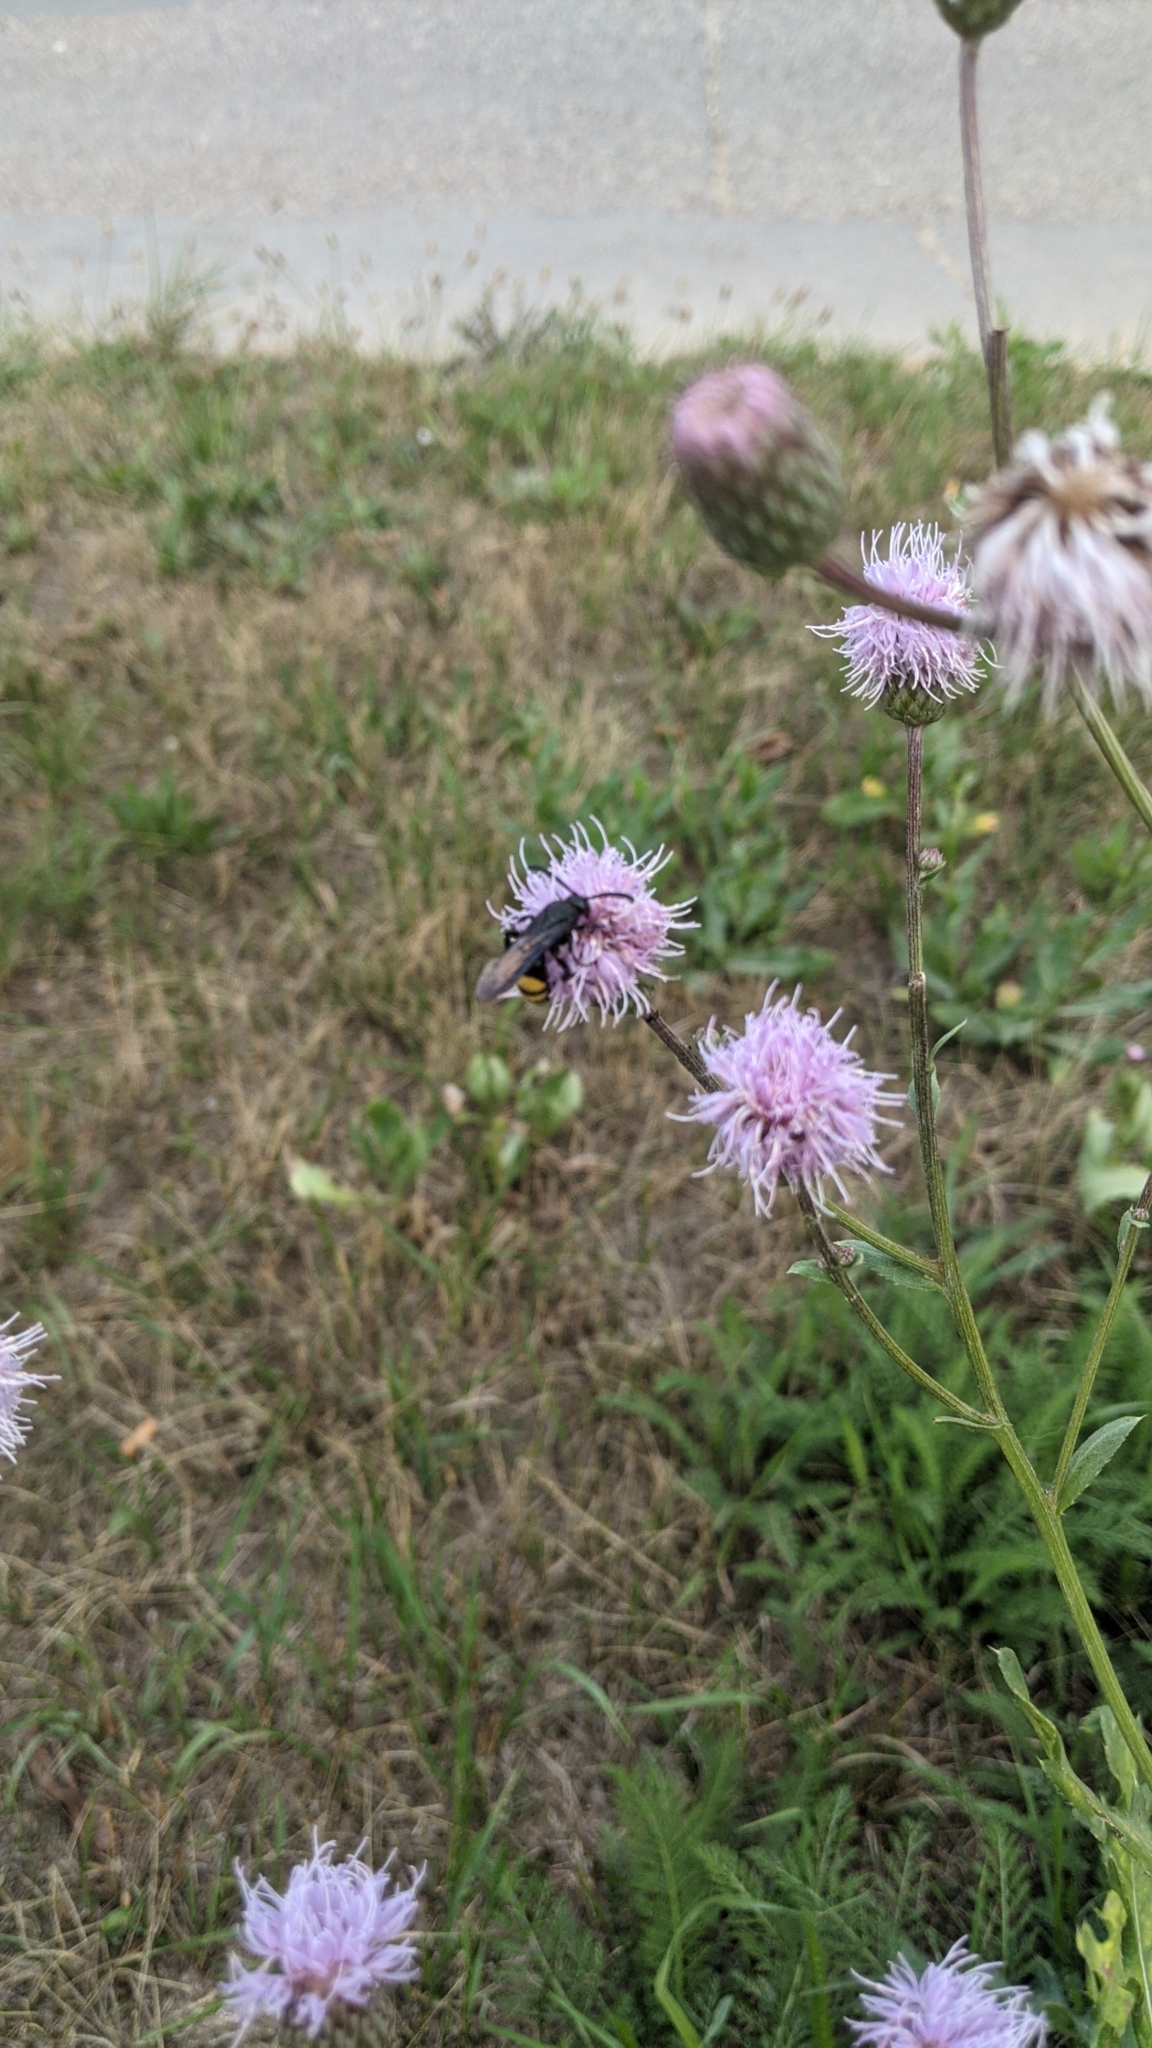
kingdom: Animalia
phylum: Arthropoda
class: Insecta
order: Hymenoptera
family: Scoliidae
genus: Scolia
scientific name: Scolia hirta
